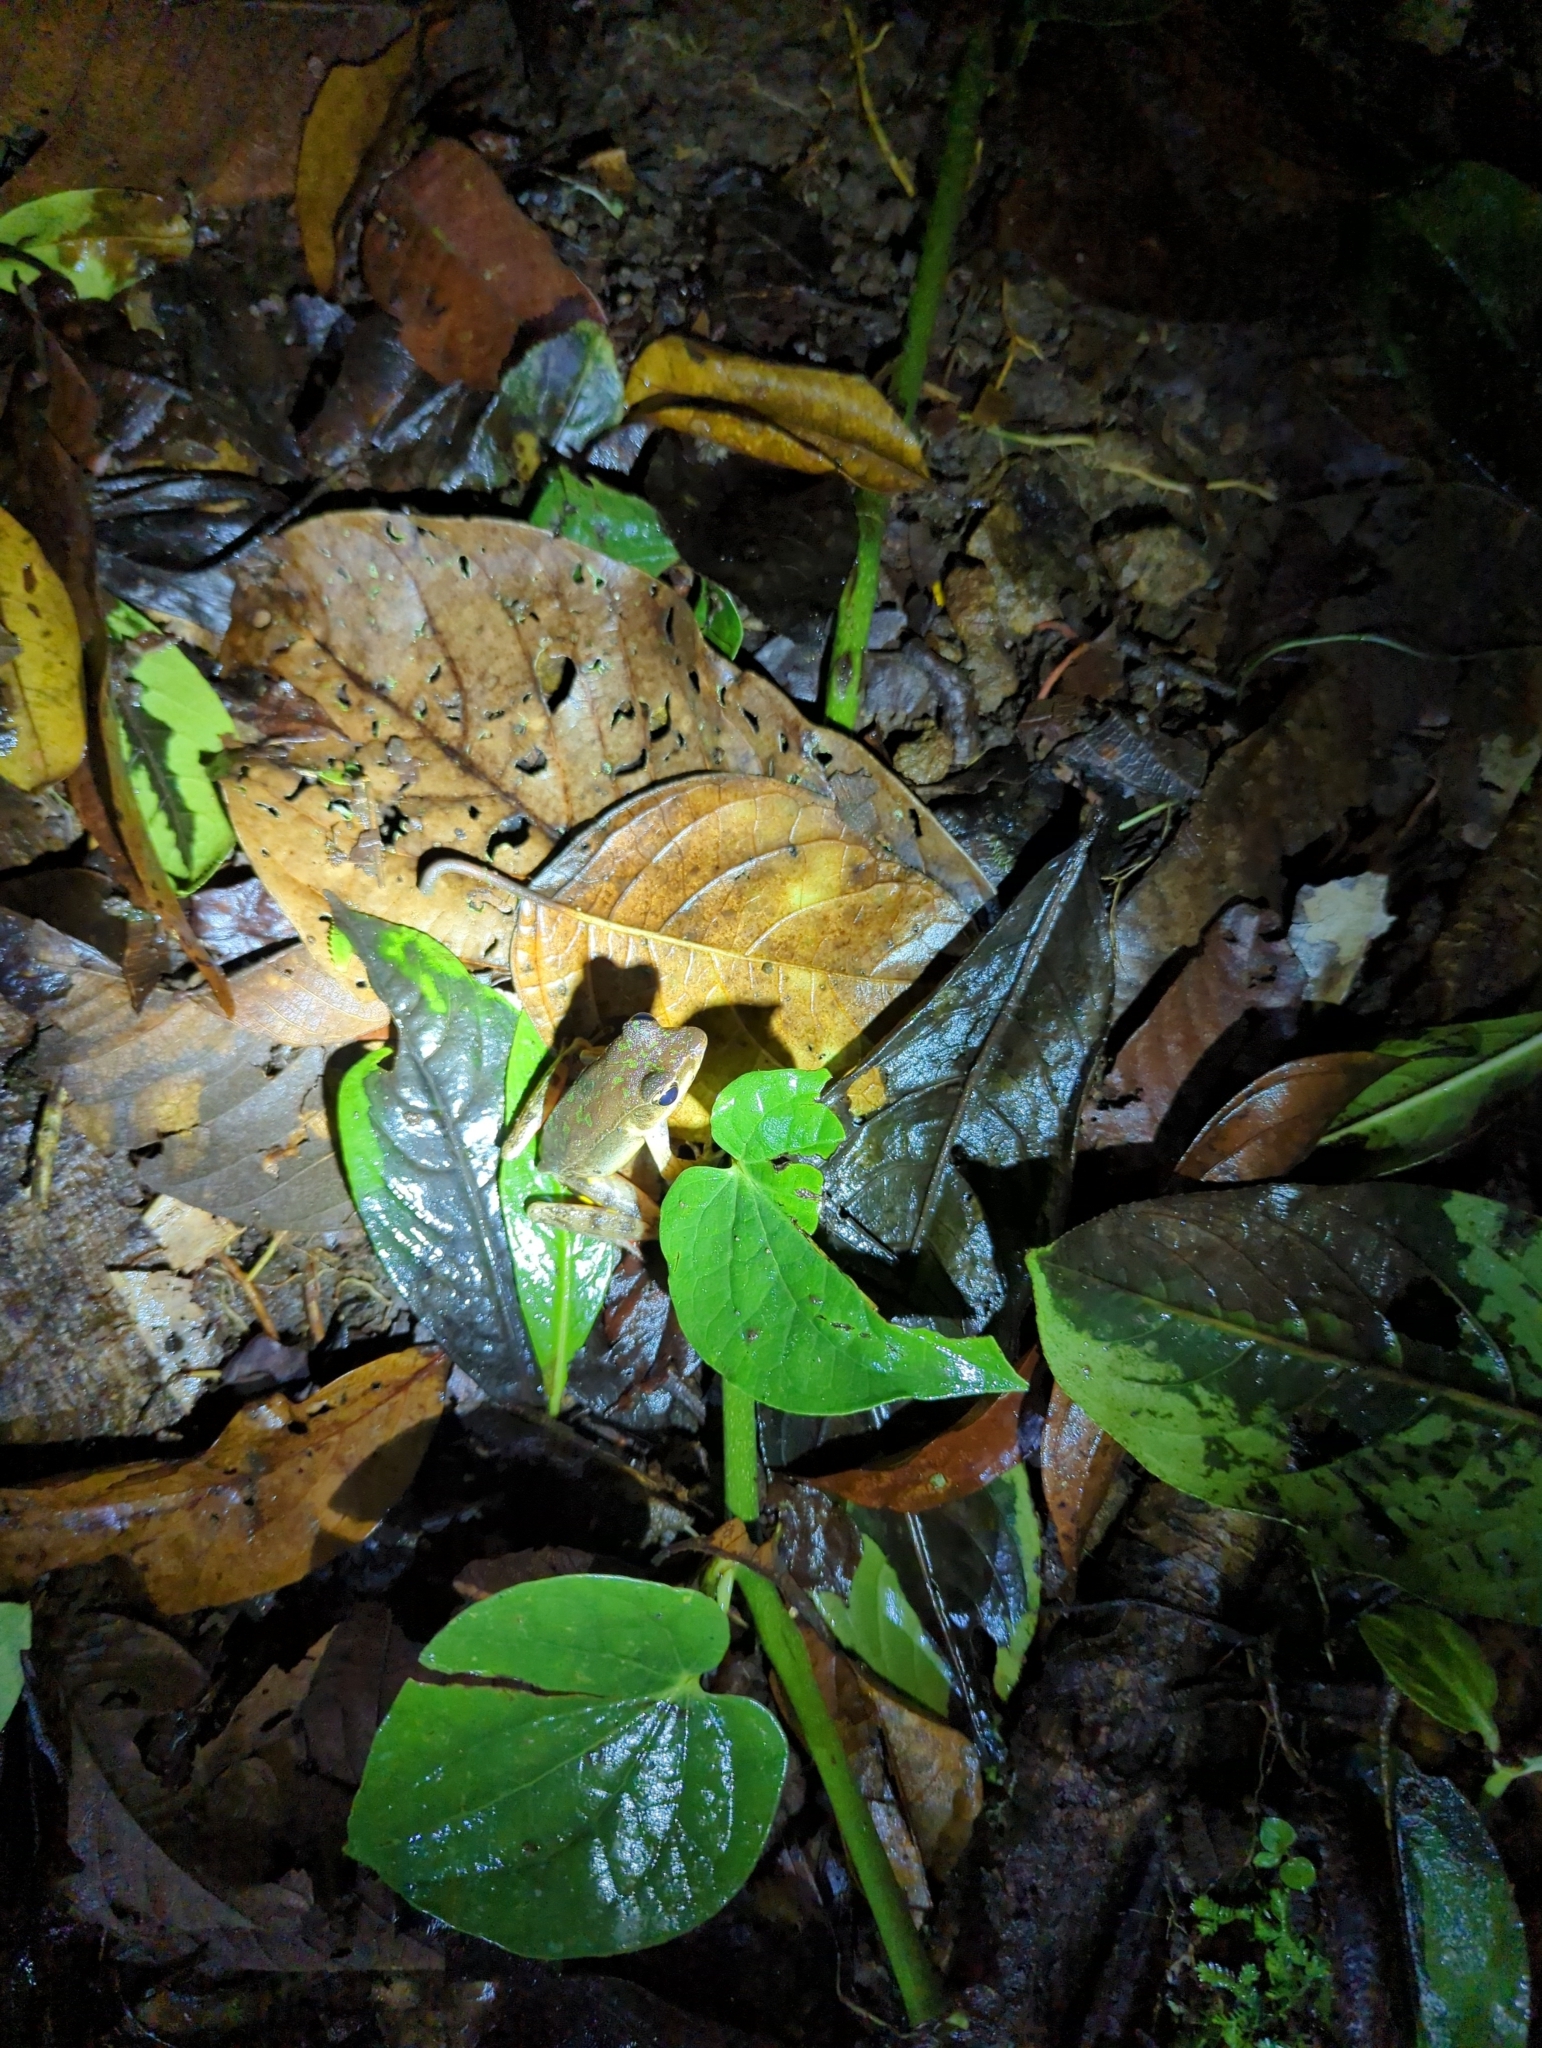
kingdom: Animalia
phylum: Chordata
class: Amphibia
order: Anura
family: Ranidae
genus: Lithobates
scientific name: Lithobates warszewitschii
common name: Warszewitsch's frog
